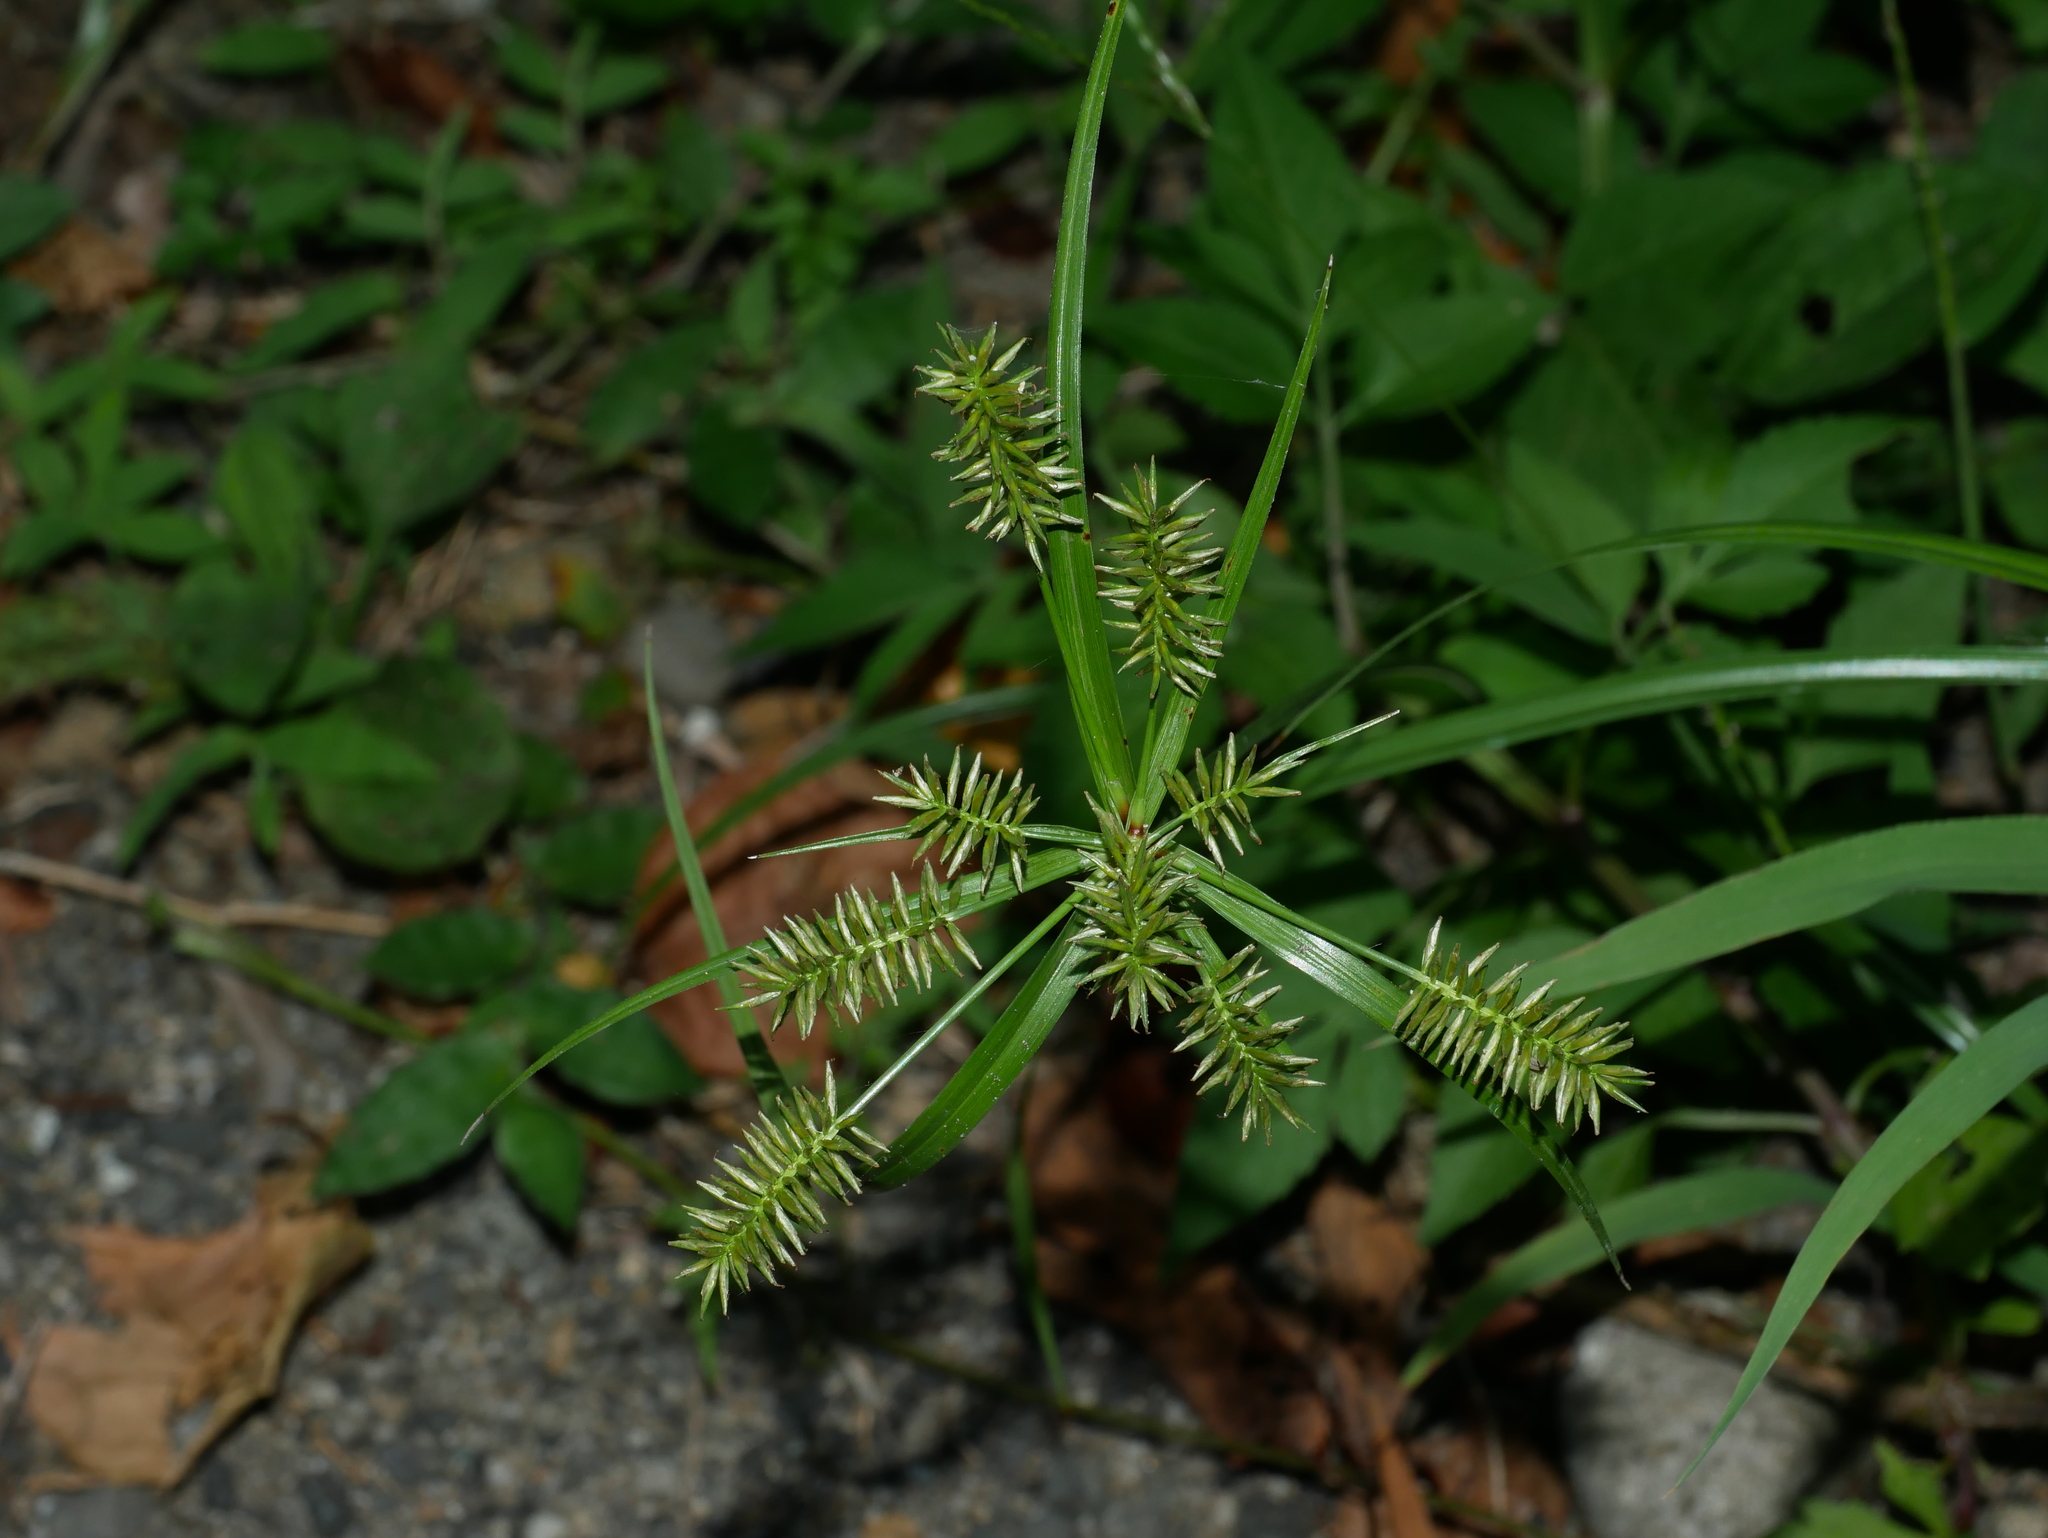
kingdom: Plantae
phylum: Tracheophyta
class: Liliopsida
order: Poales
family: Cyperaceae
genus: Cyperus
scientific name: Cyperus cyperoides
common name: Pacific island flat sedge
